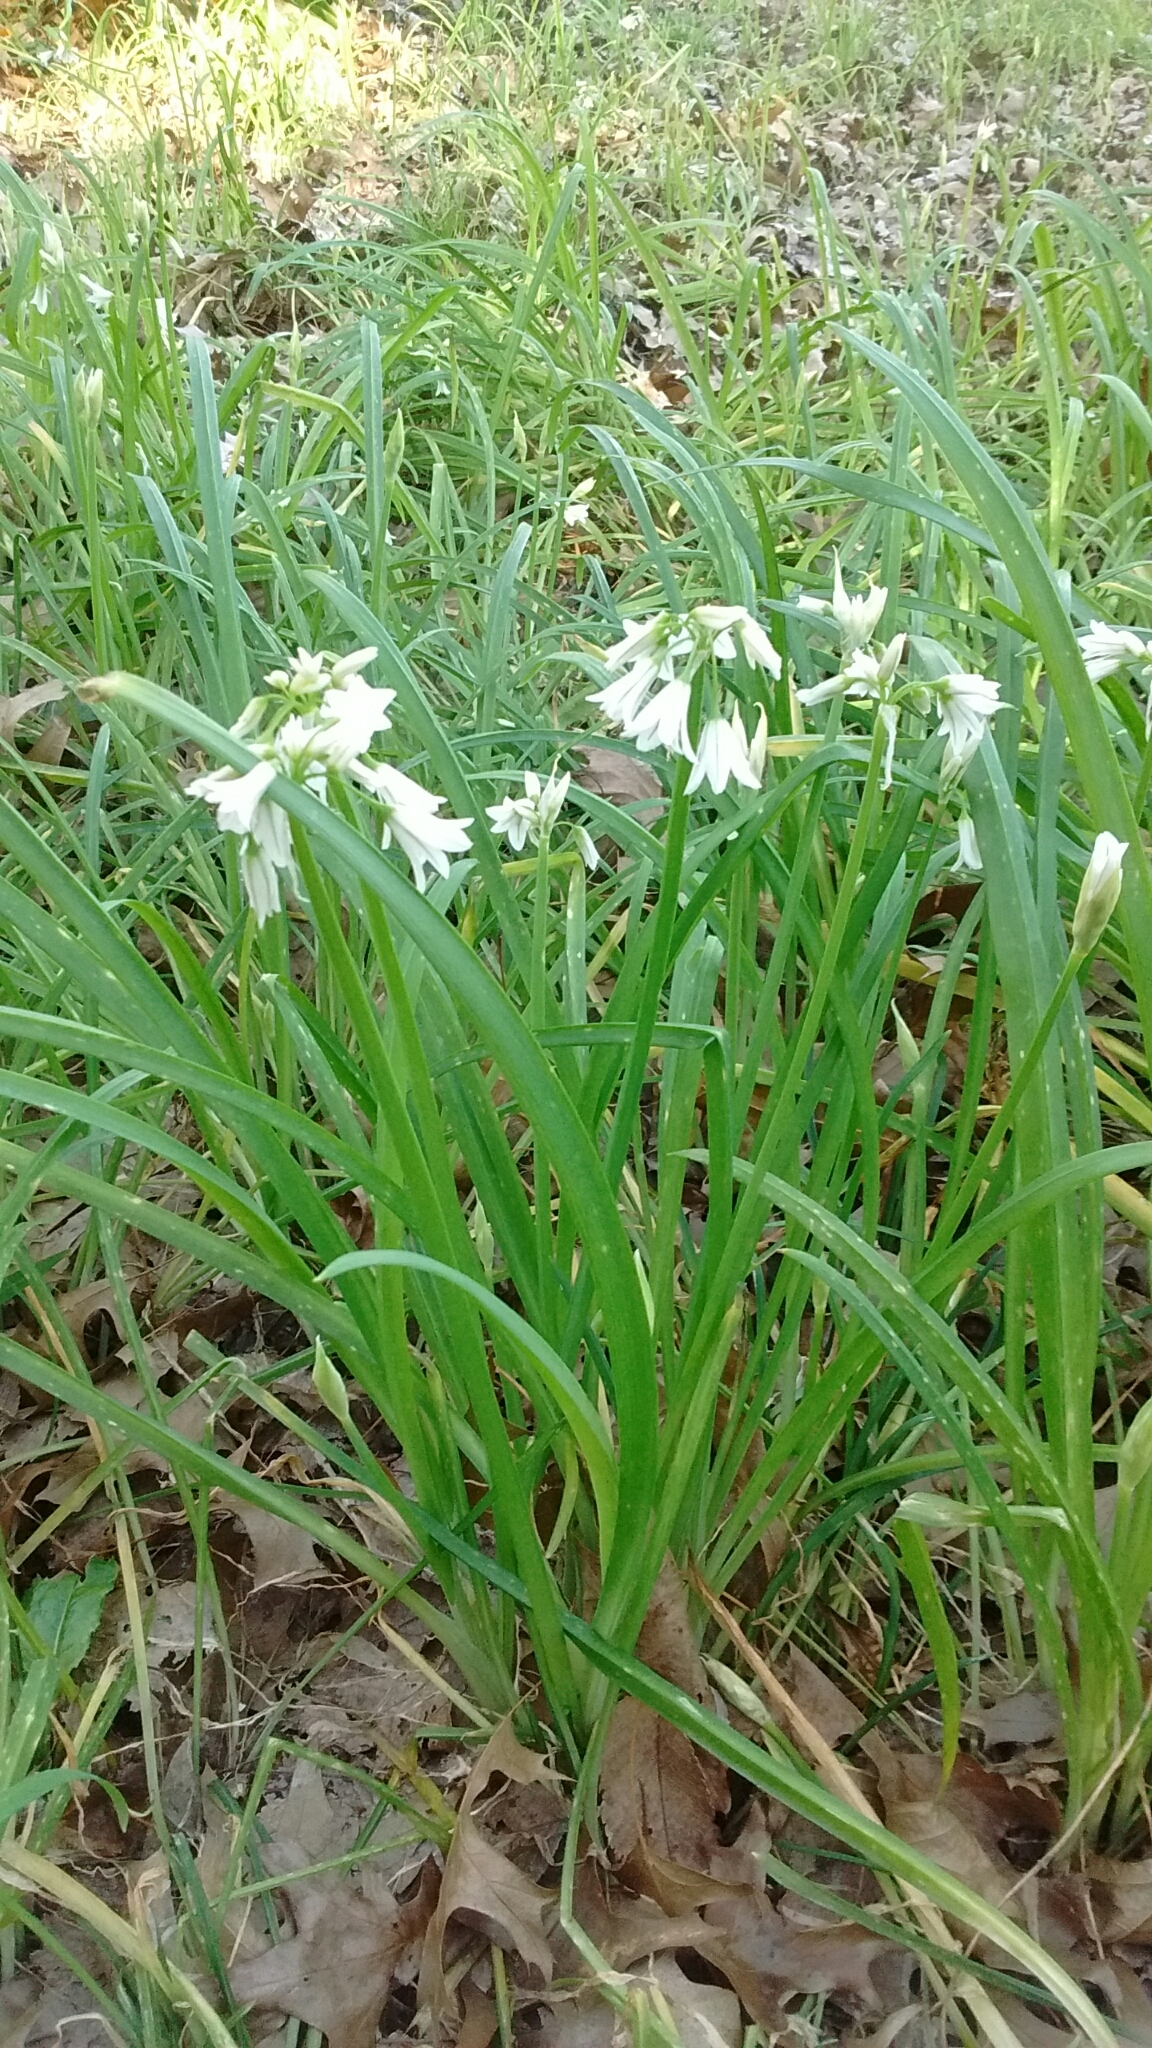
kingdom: Plantae
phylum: Tracheophyta
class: Liliopsida
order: Asparagales
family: Amaryllidaceae
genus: Allium
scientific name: Allium triquetrum
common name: Three-cornered garlic
